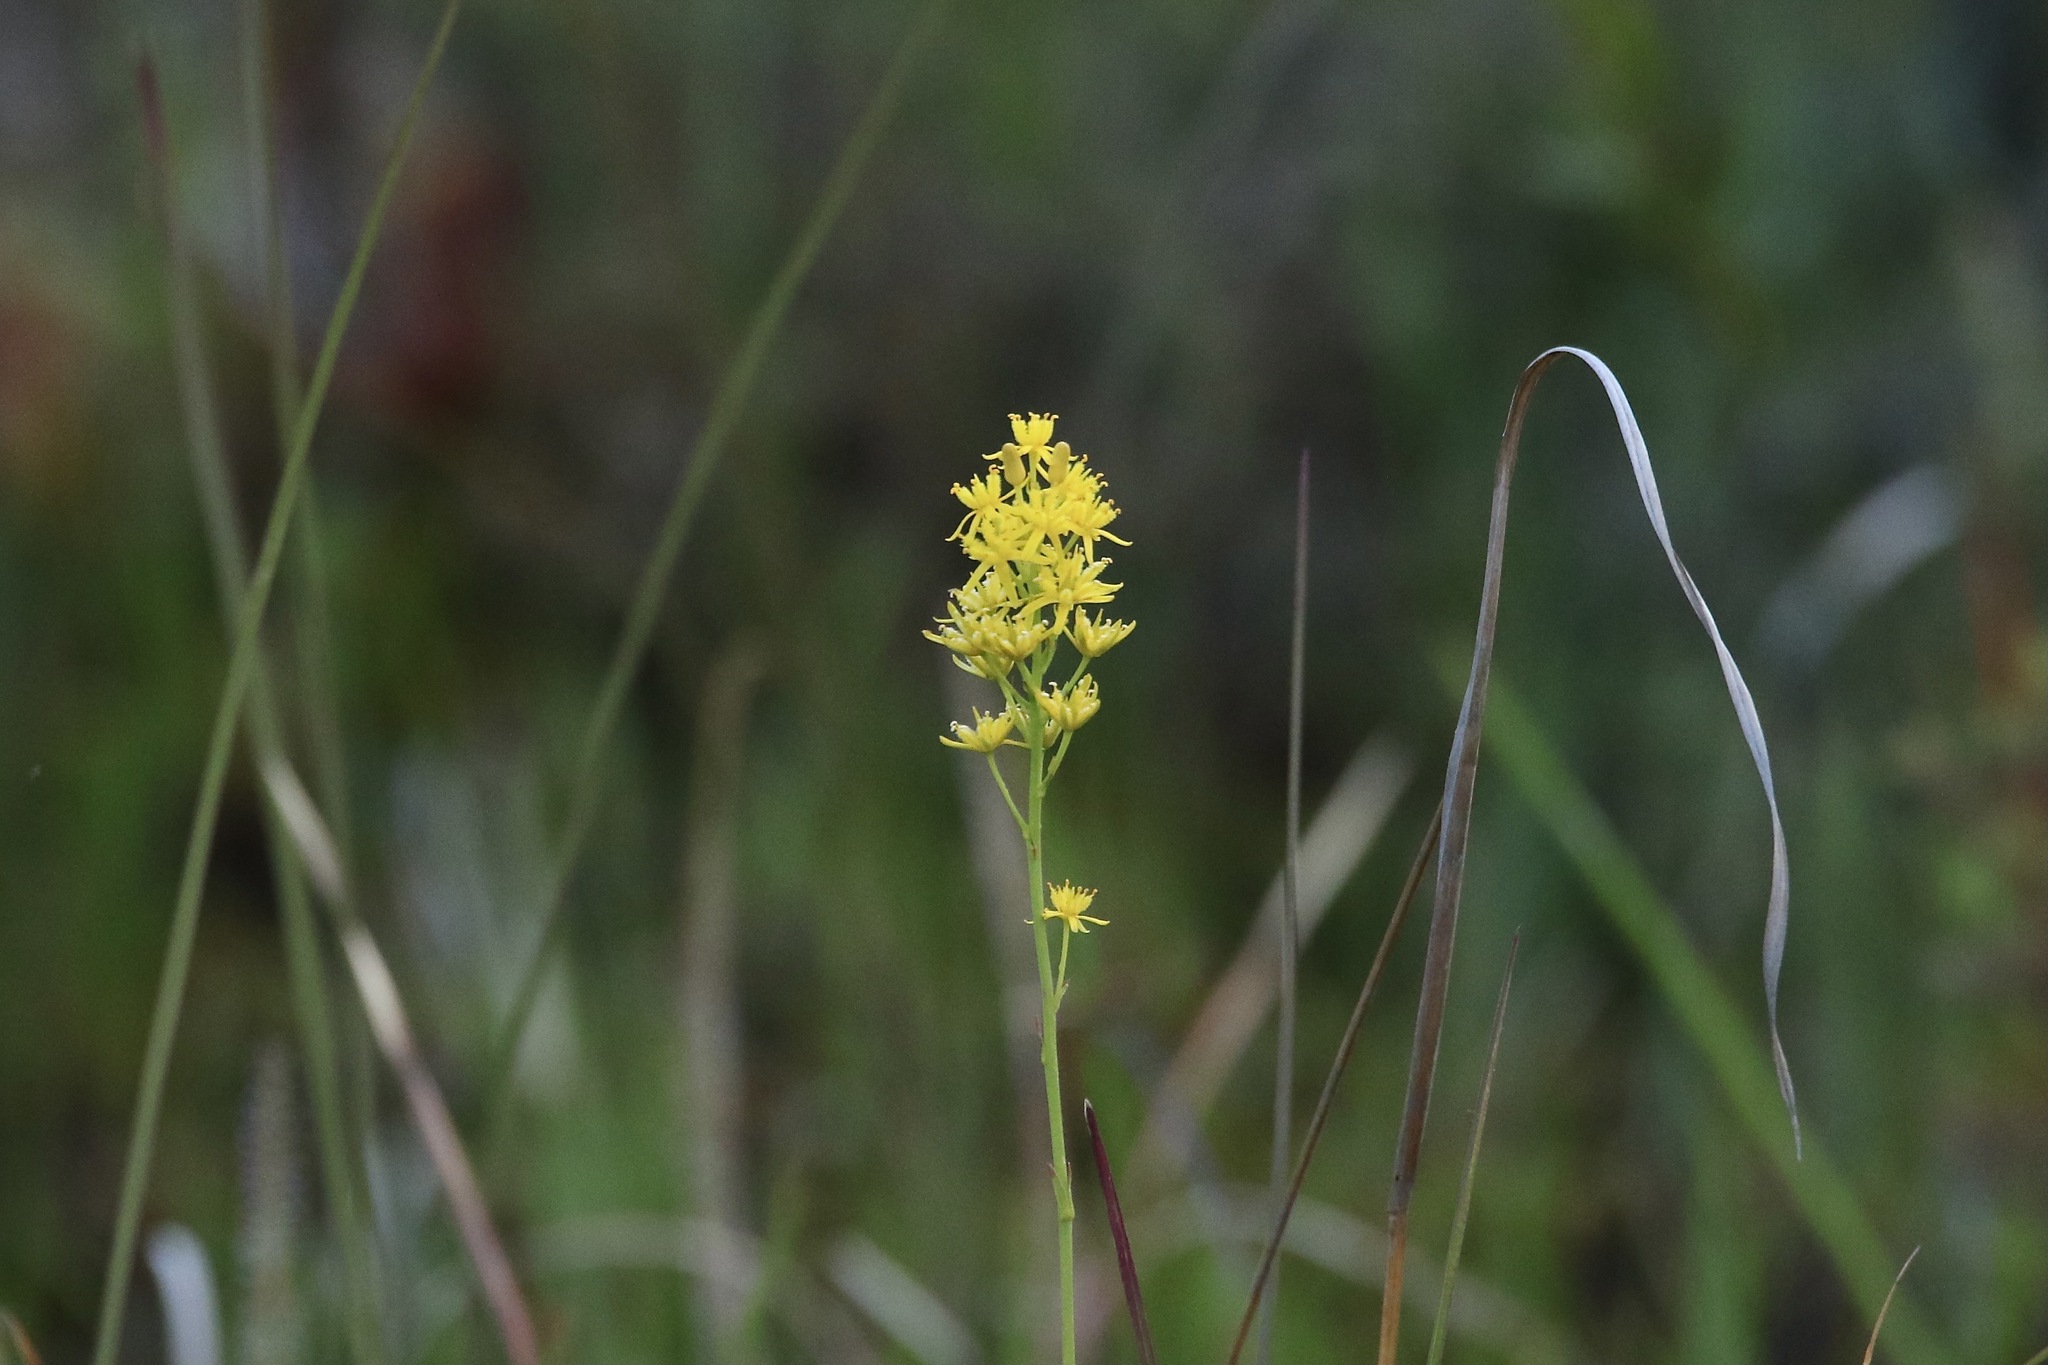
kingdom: Plantae
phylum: Tracheophyta
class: Liliopsida
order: Dioscoreales
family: Nartheciaceae
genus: Narthecium
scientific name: Narthecium americanum
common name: Bog-asphodel
